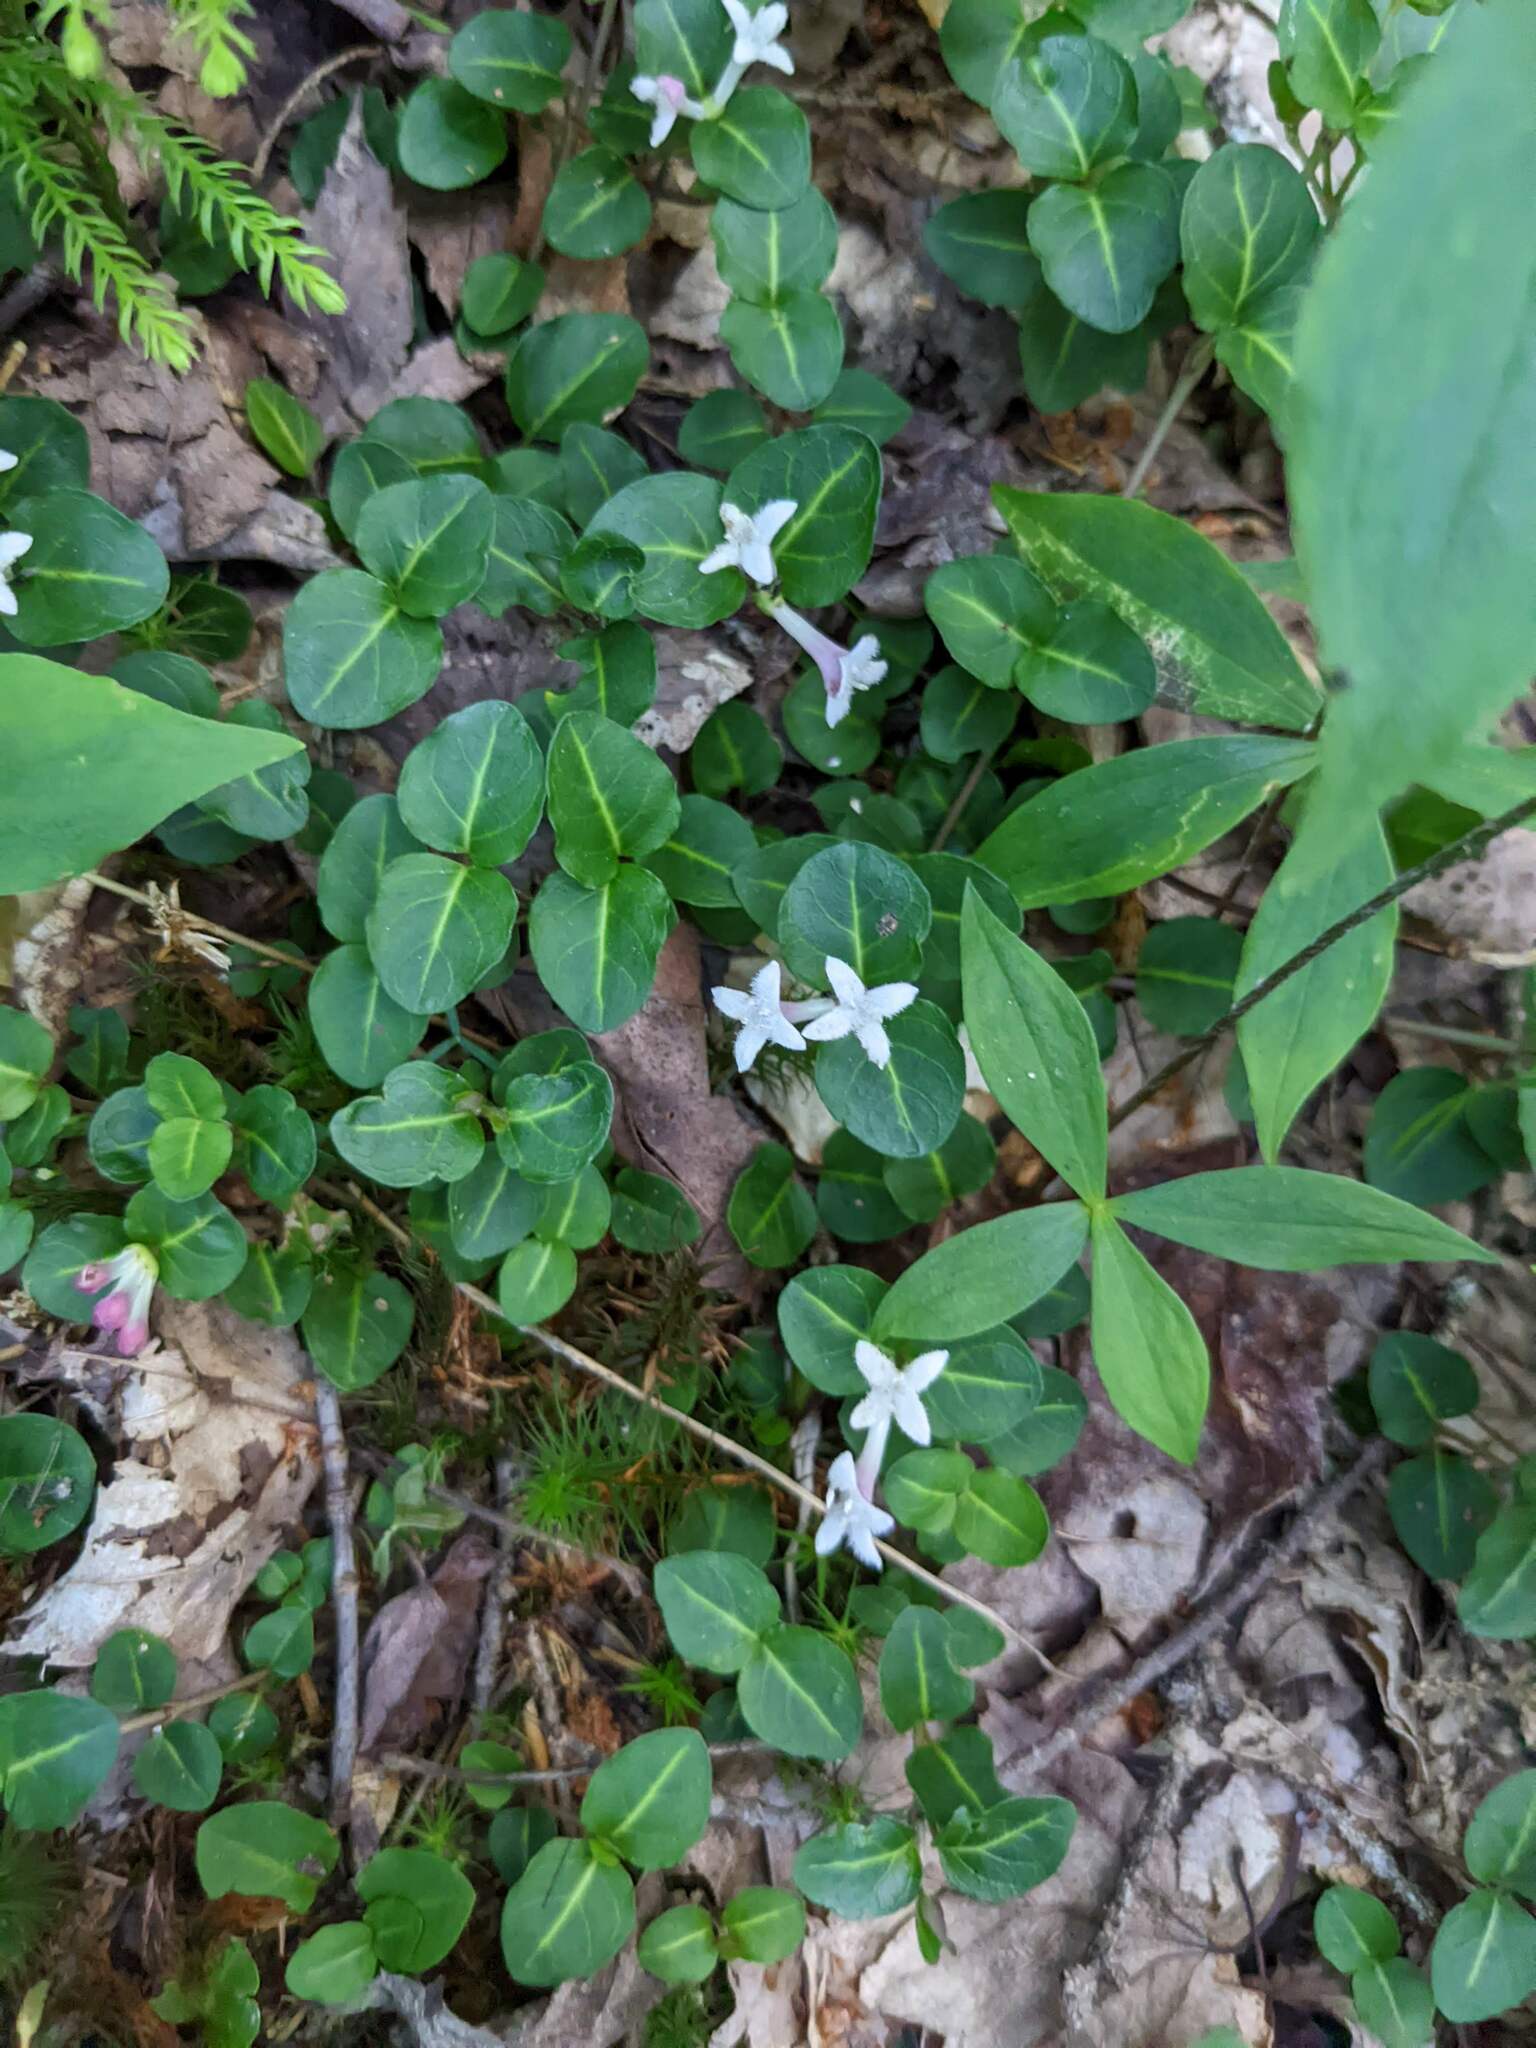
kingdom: Plantae
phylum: Tracheophyta
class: Magnoliopsida
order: Gentianales
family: Rubiaceae
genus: Mitchella
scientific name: Mitchella repens
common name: Partridge-berry
